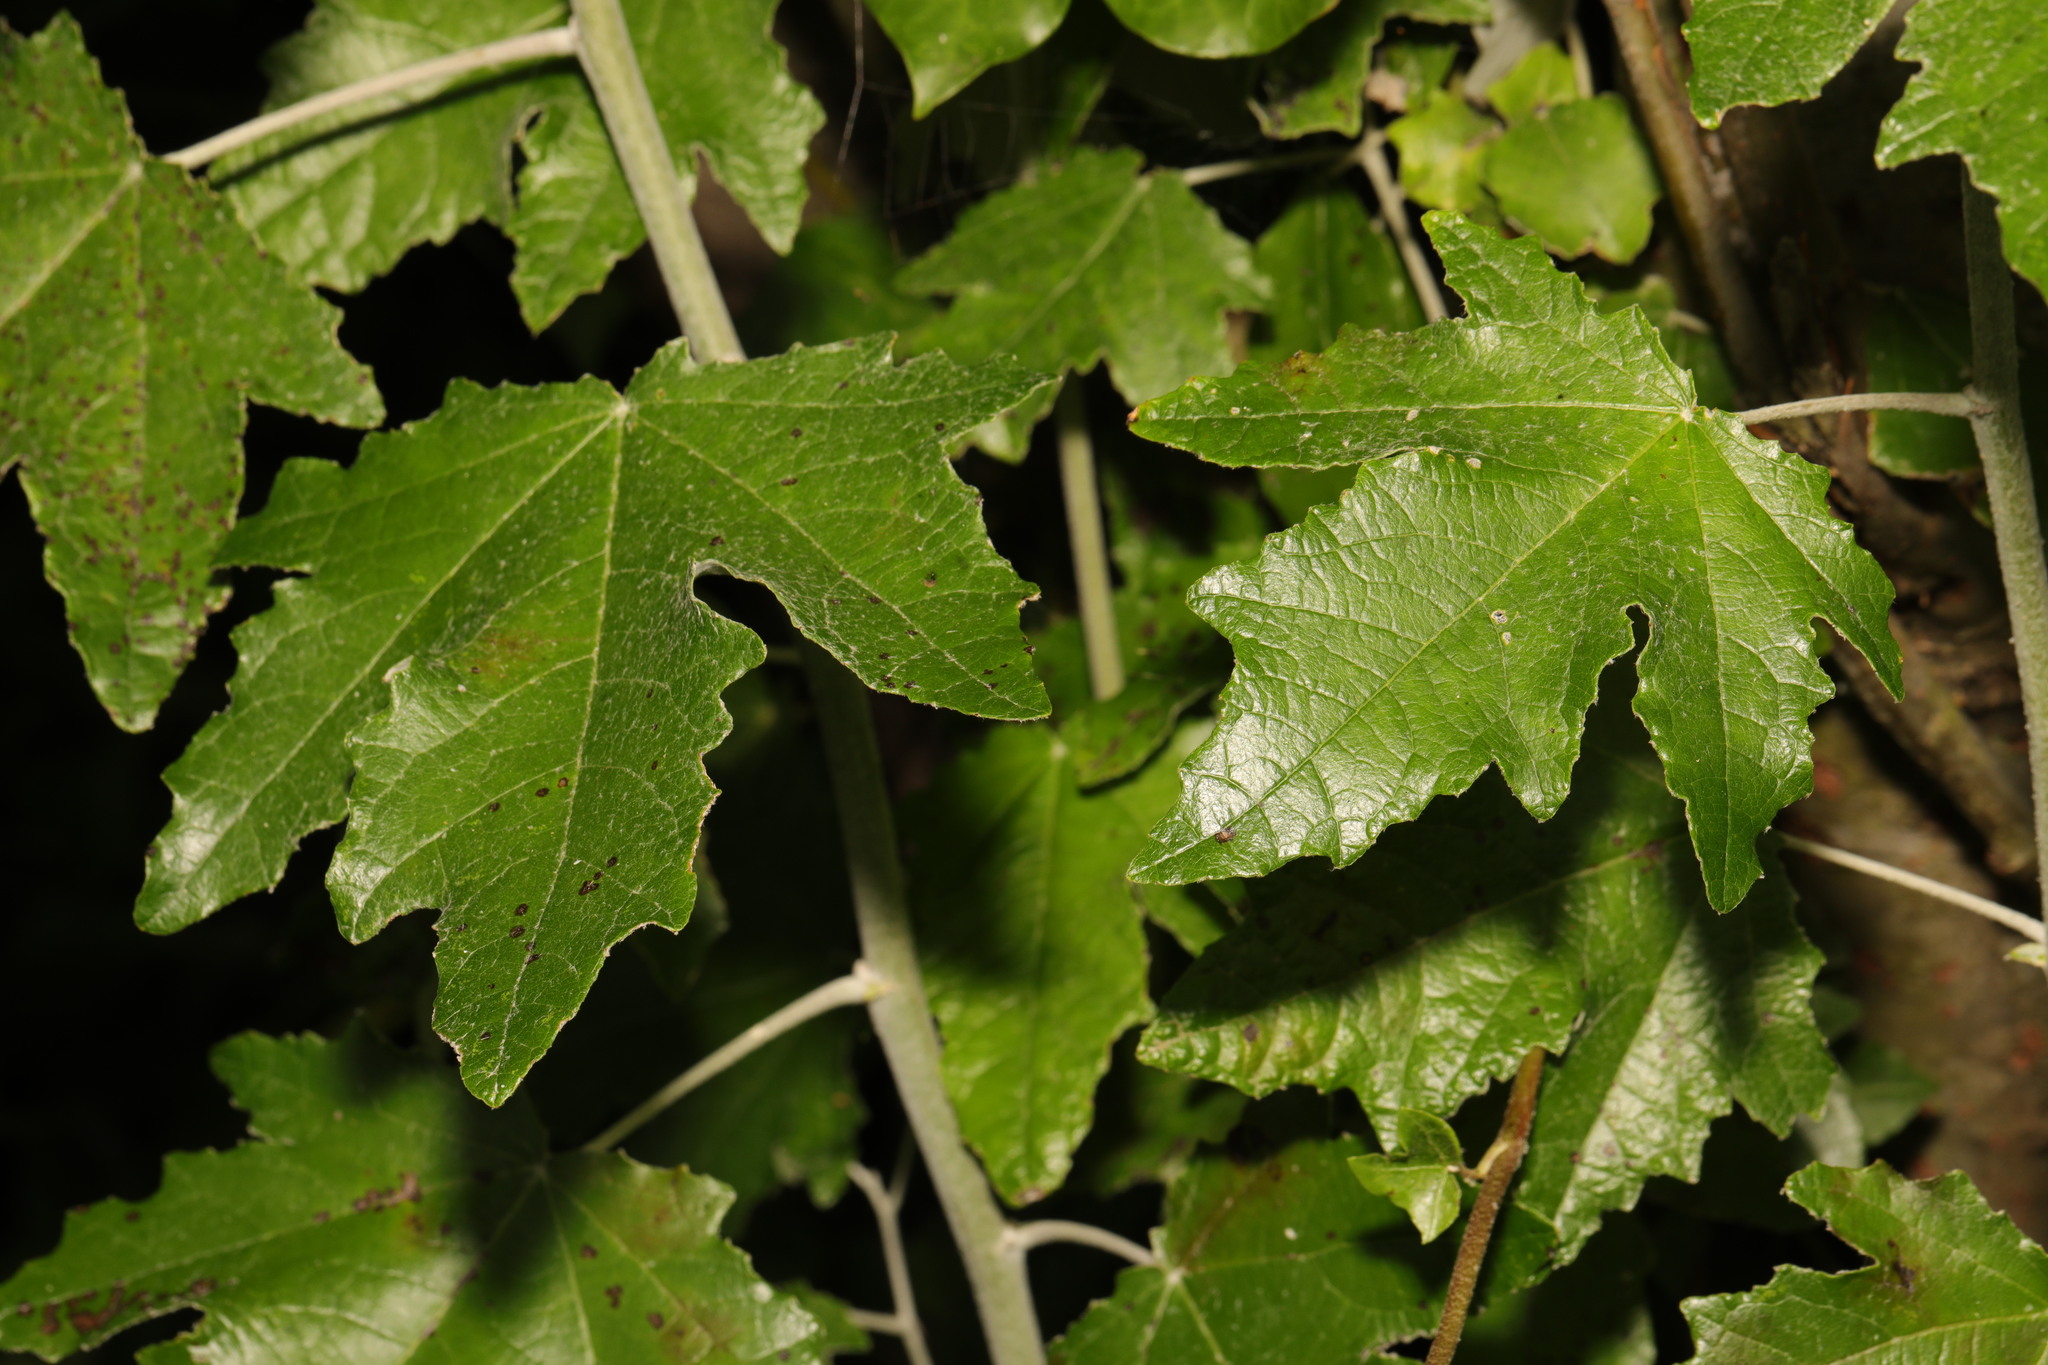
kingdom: Plantae
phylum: Tracheophyta
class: Magnoliopsida
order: Malpighiales
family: Salicaceae
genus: Populus
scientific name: Populus alba
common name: White poplar
